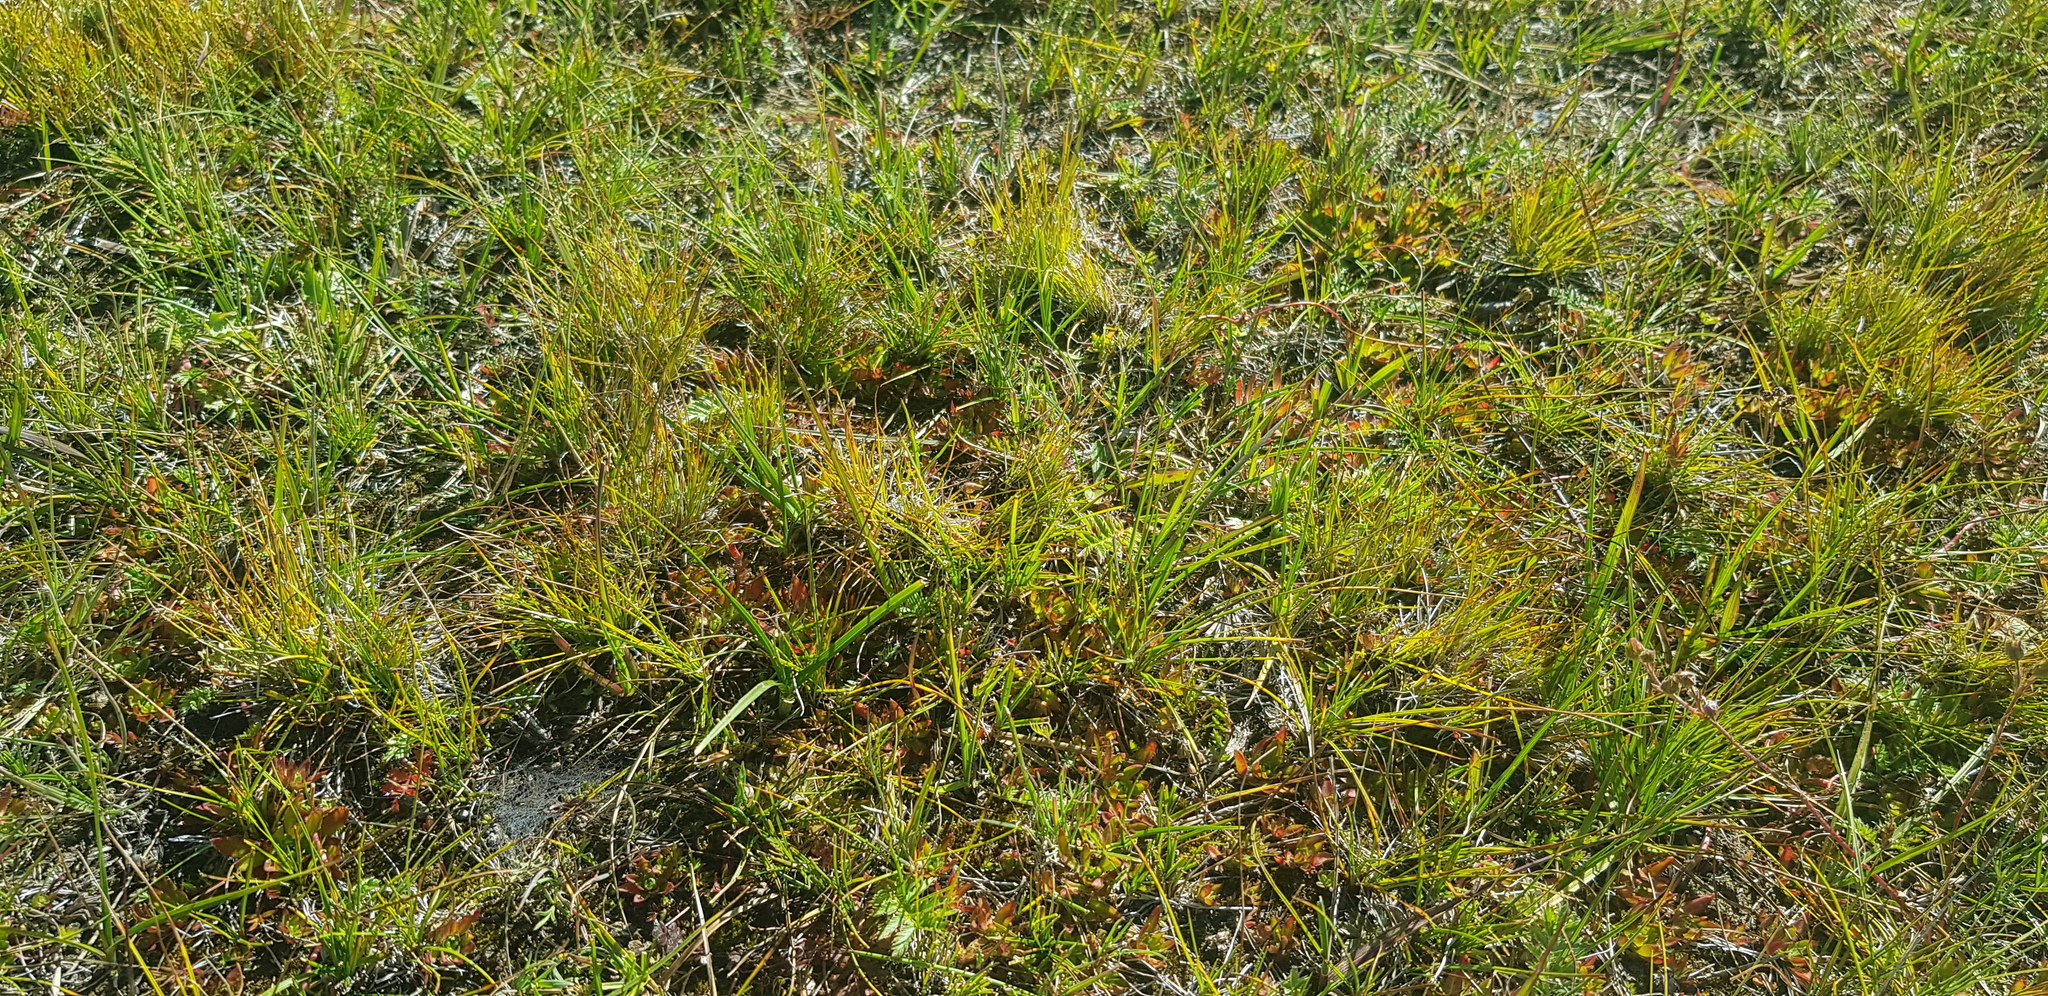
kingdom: Plantae
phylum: Tracheophyta
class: Liliopsida
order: Poales
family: Cyperaceae
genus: Carex
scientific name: Carex duriuscula
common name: Involute-leaved sedge
